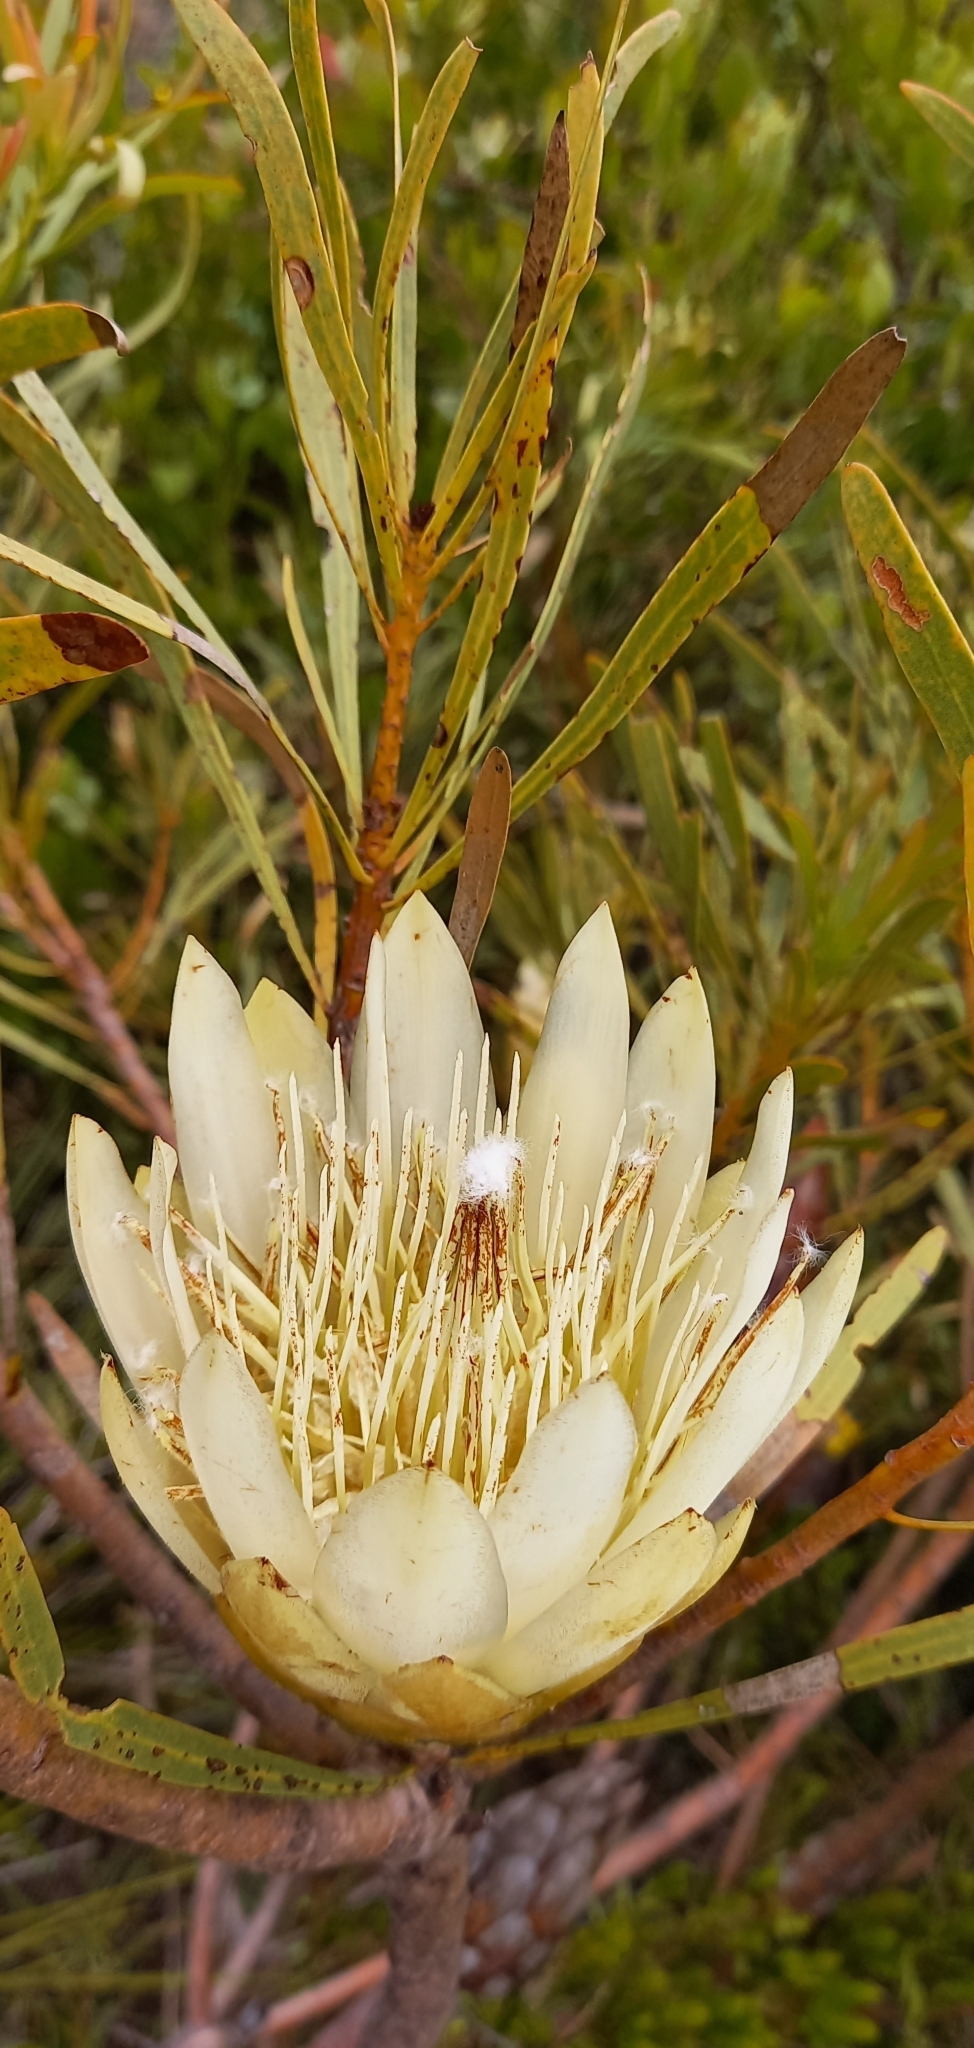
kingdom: Plantae
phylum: Tracheophyta
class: Magnoliopsida
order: Proteales
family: Proteaceae
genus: Protea
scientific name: Protea repens
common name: Sugarbush
